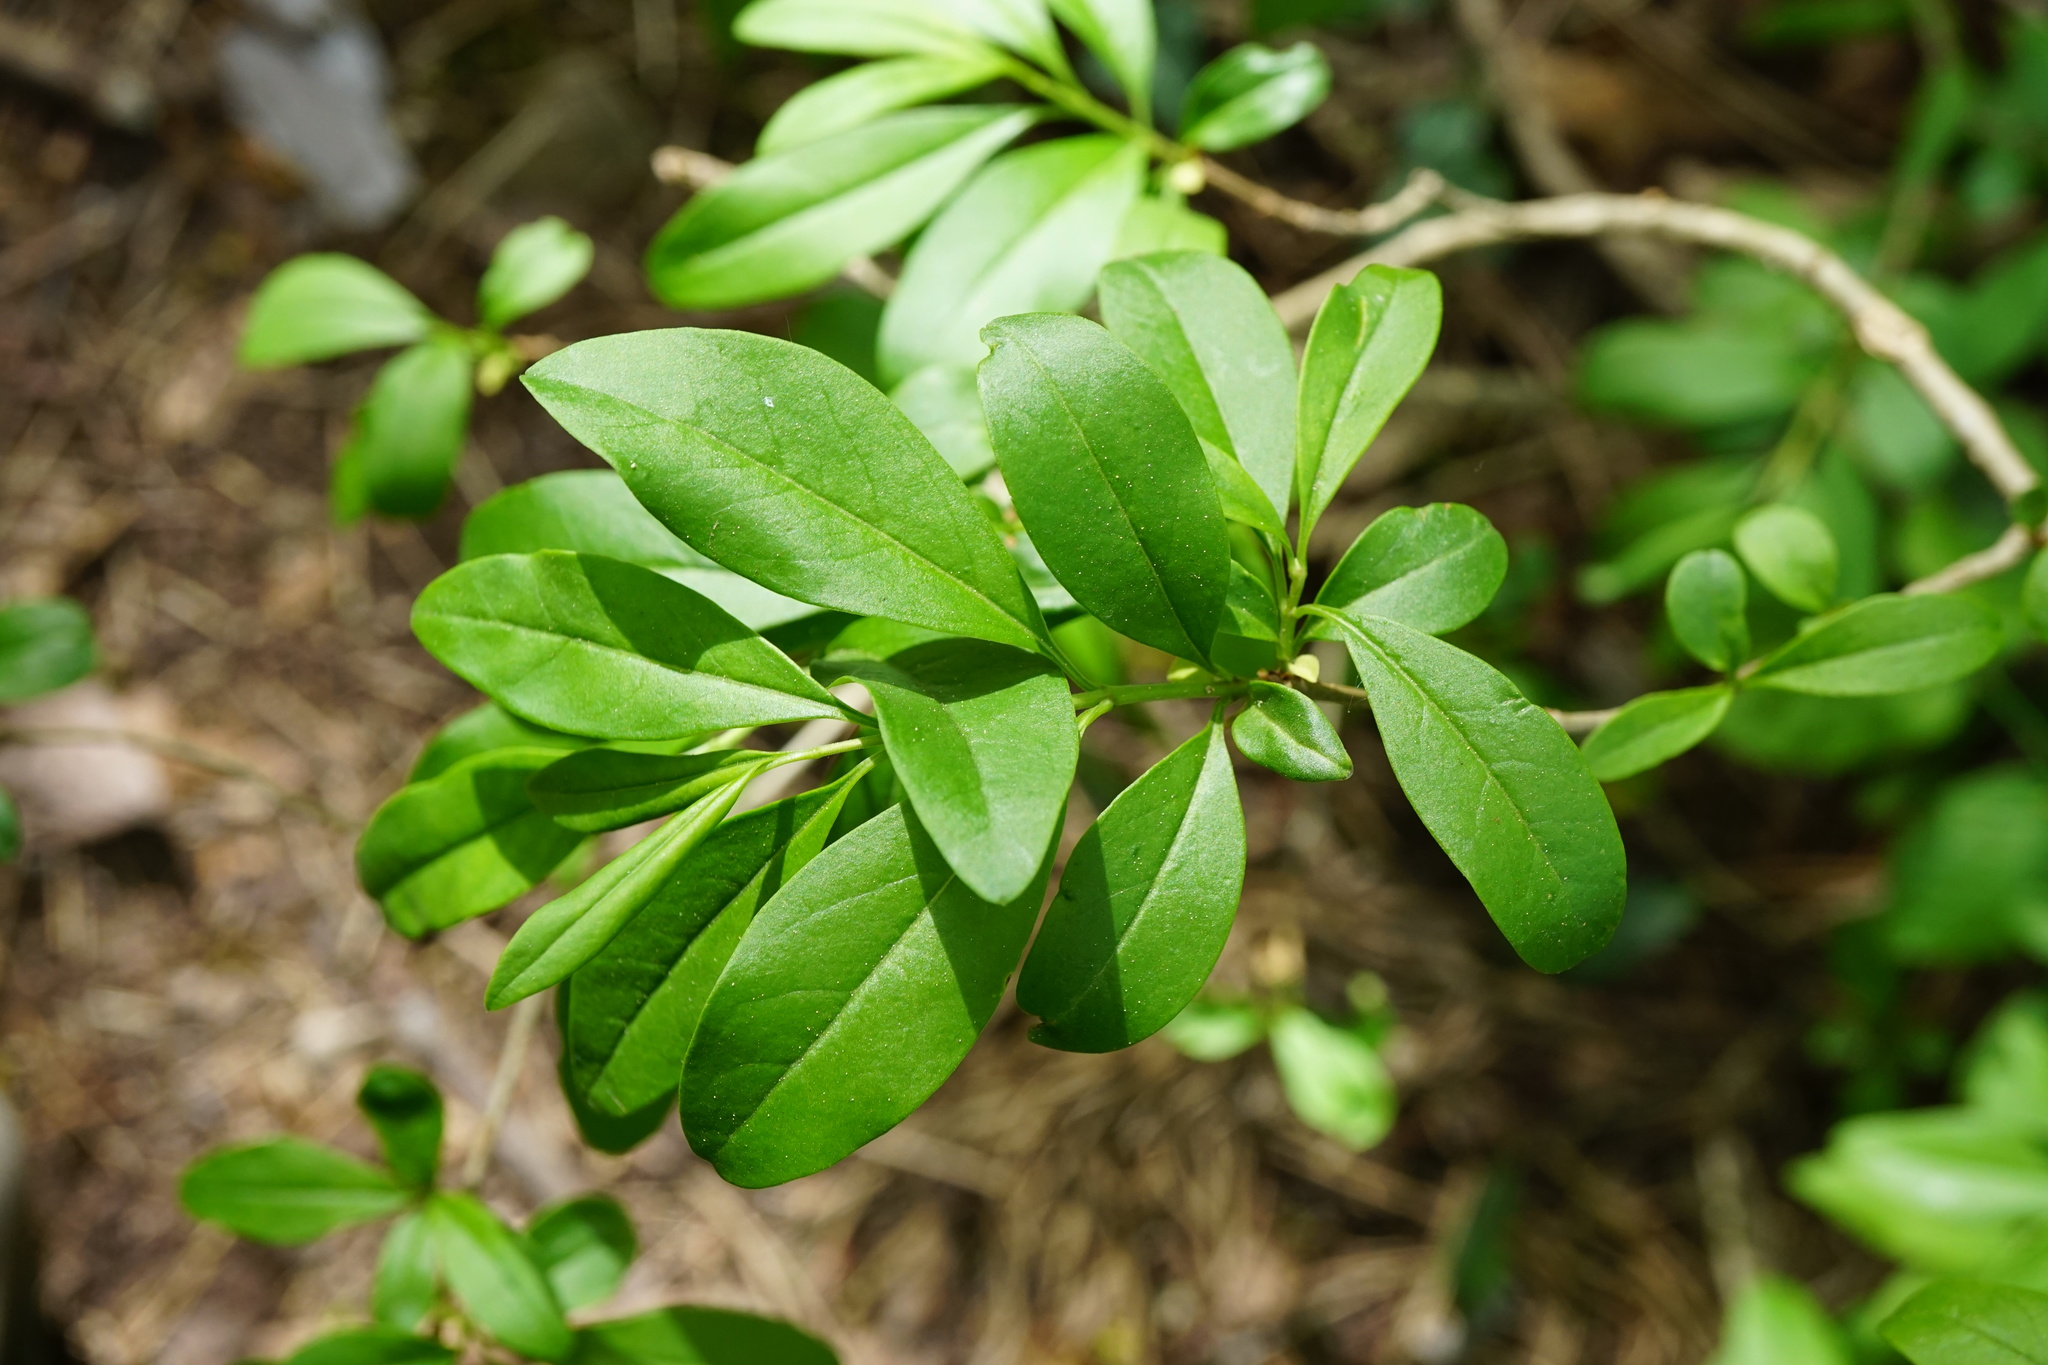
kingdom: Plantae
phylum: Tracheophyta
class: Magnoliopsida
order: Lamiales
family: Oleaceae
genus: Ligustrum
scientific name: Ligustrum vulgare
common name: Wild privet
